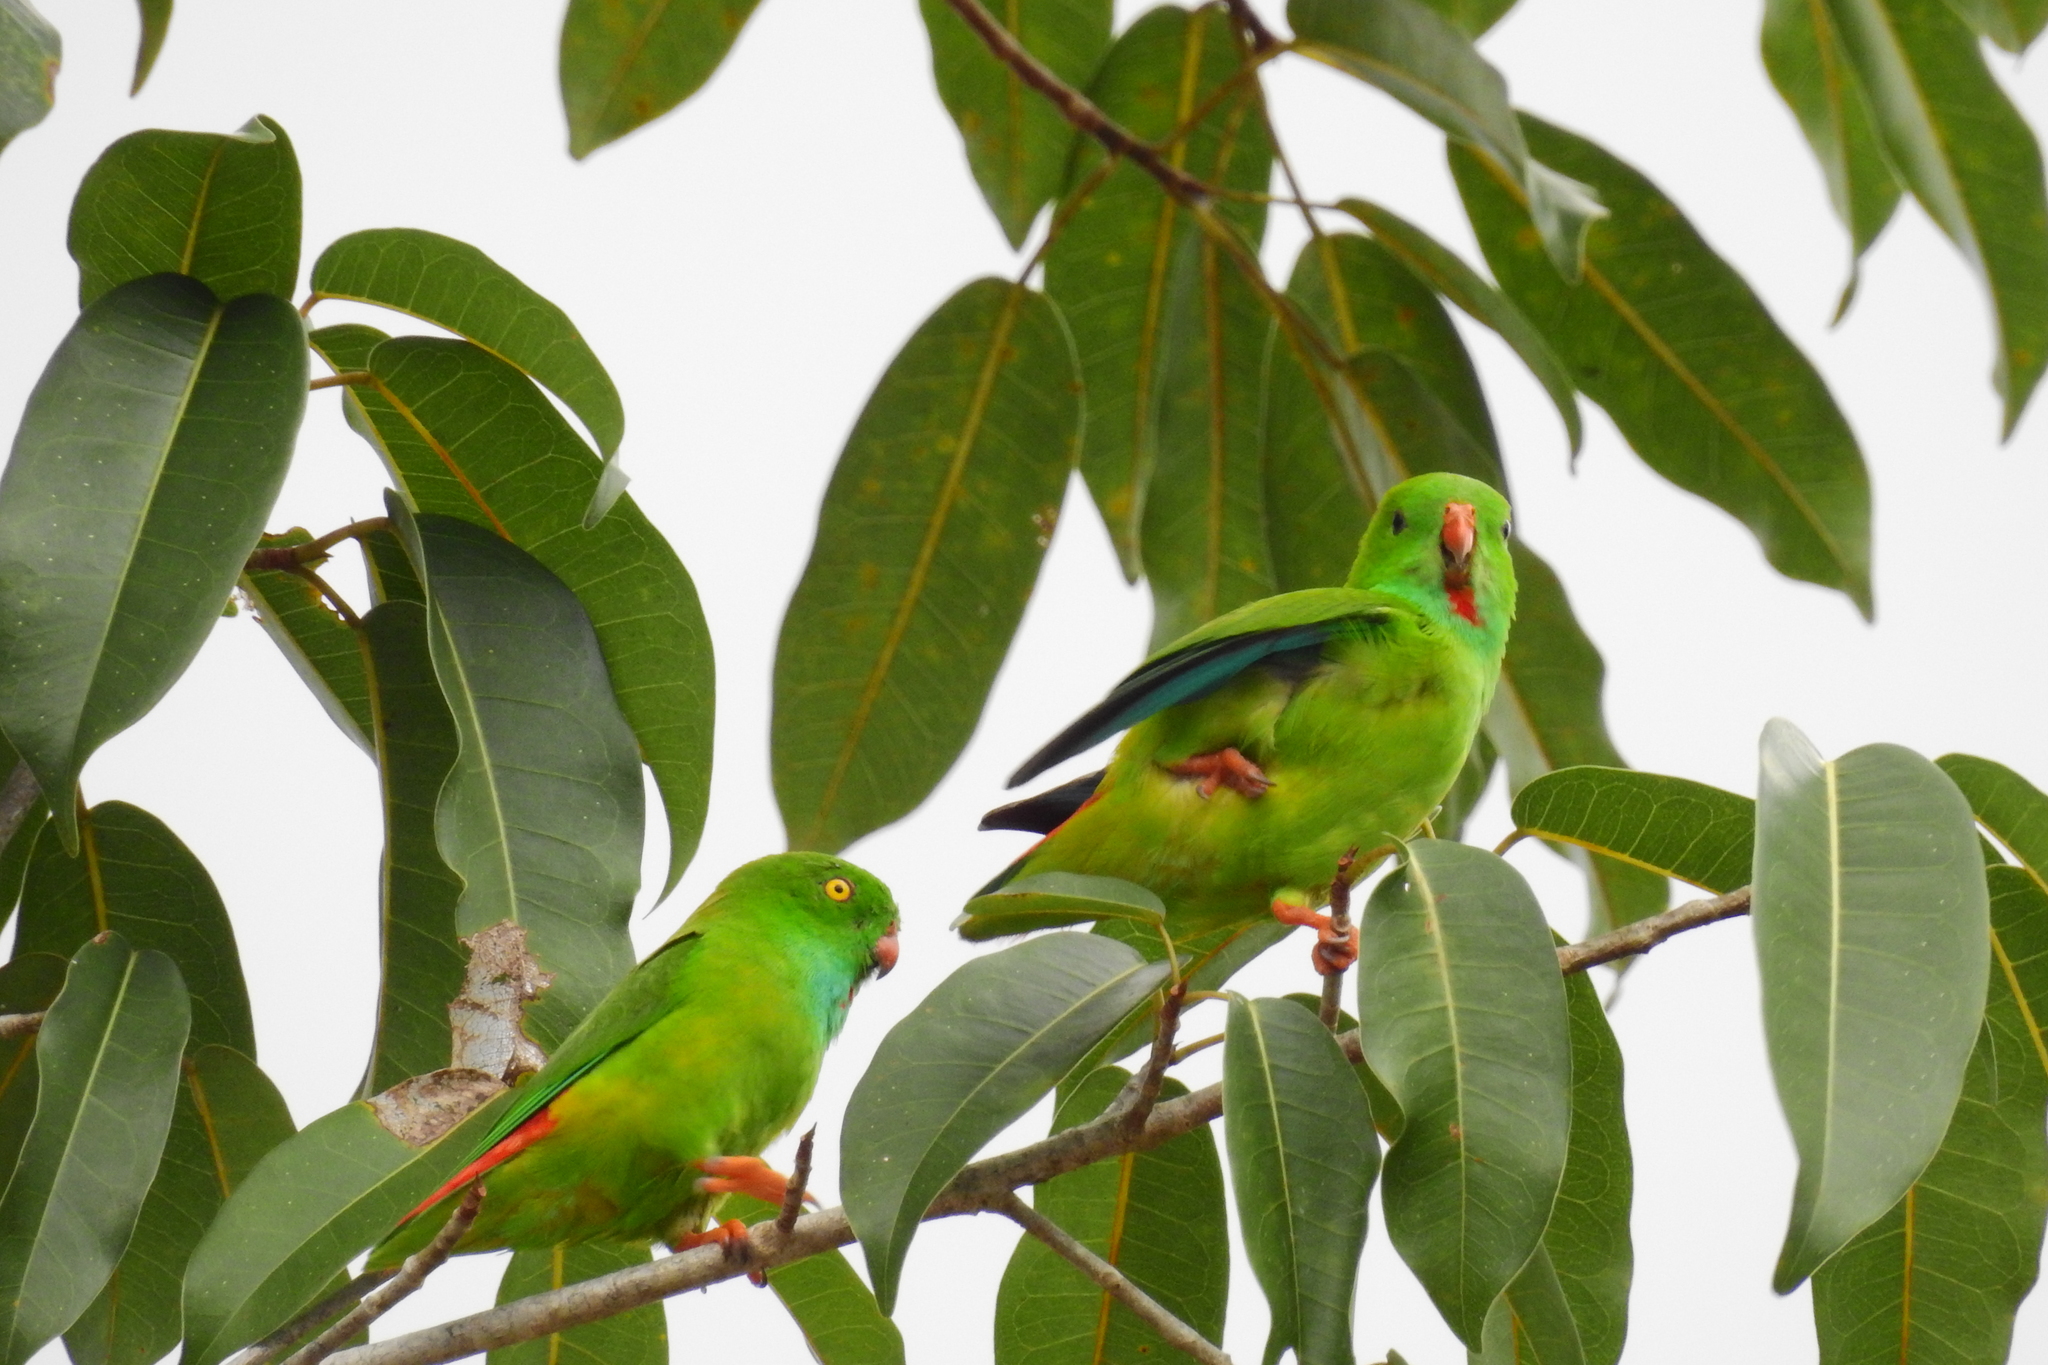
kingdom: Animalia
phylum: Chordata
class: Aves
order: Psittaciformes
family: Psittacidae
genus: Loriculus
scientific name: Loriculus exilis
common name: Pygmy hanging parrot
